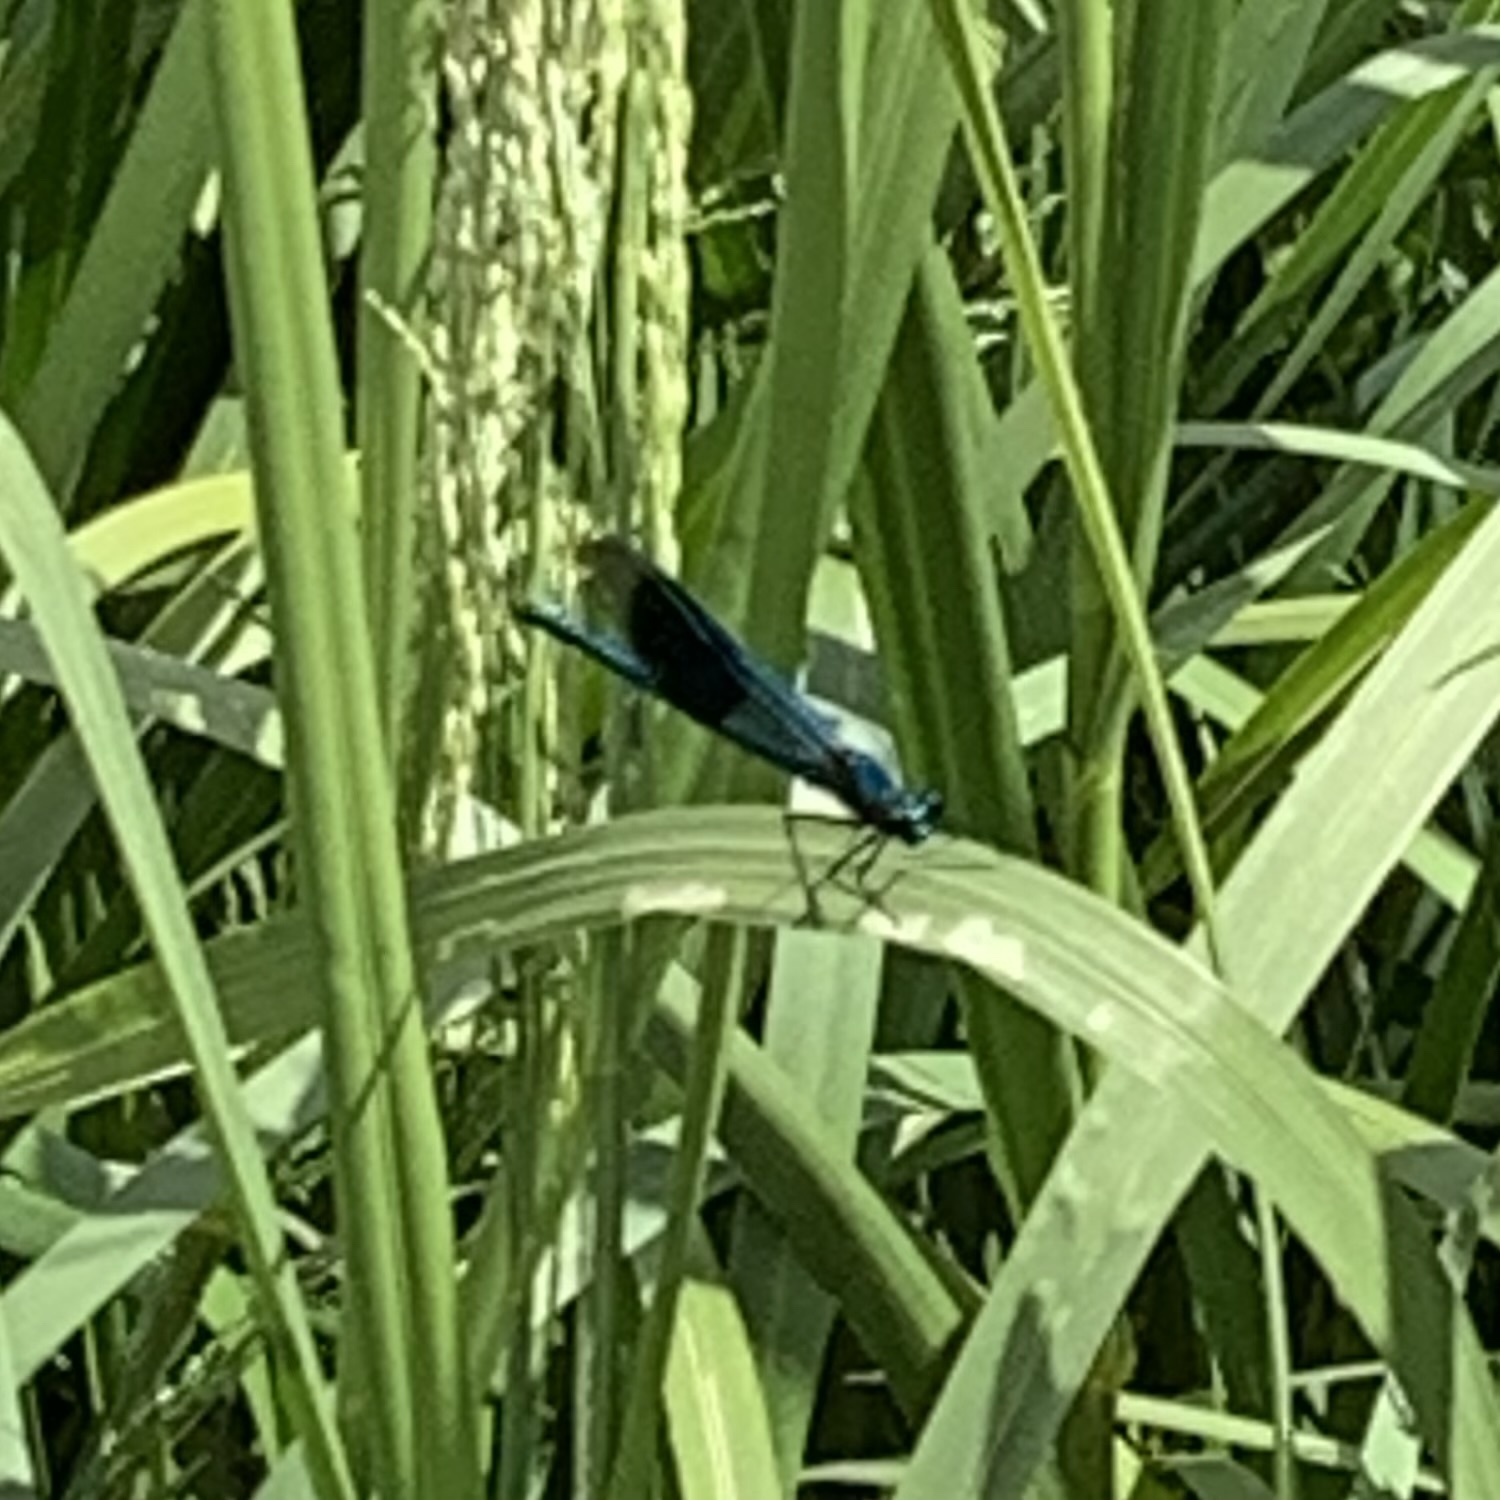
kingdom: Animalia
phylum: Arthropoda
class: Insecta
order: Odonata
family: Calopterygidae
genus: Calopteryx
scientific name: Calopteryx splendens
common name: Banded demoiselle
